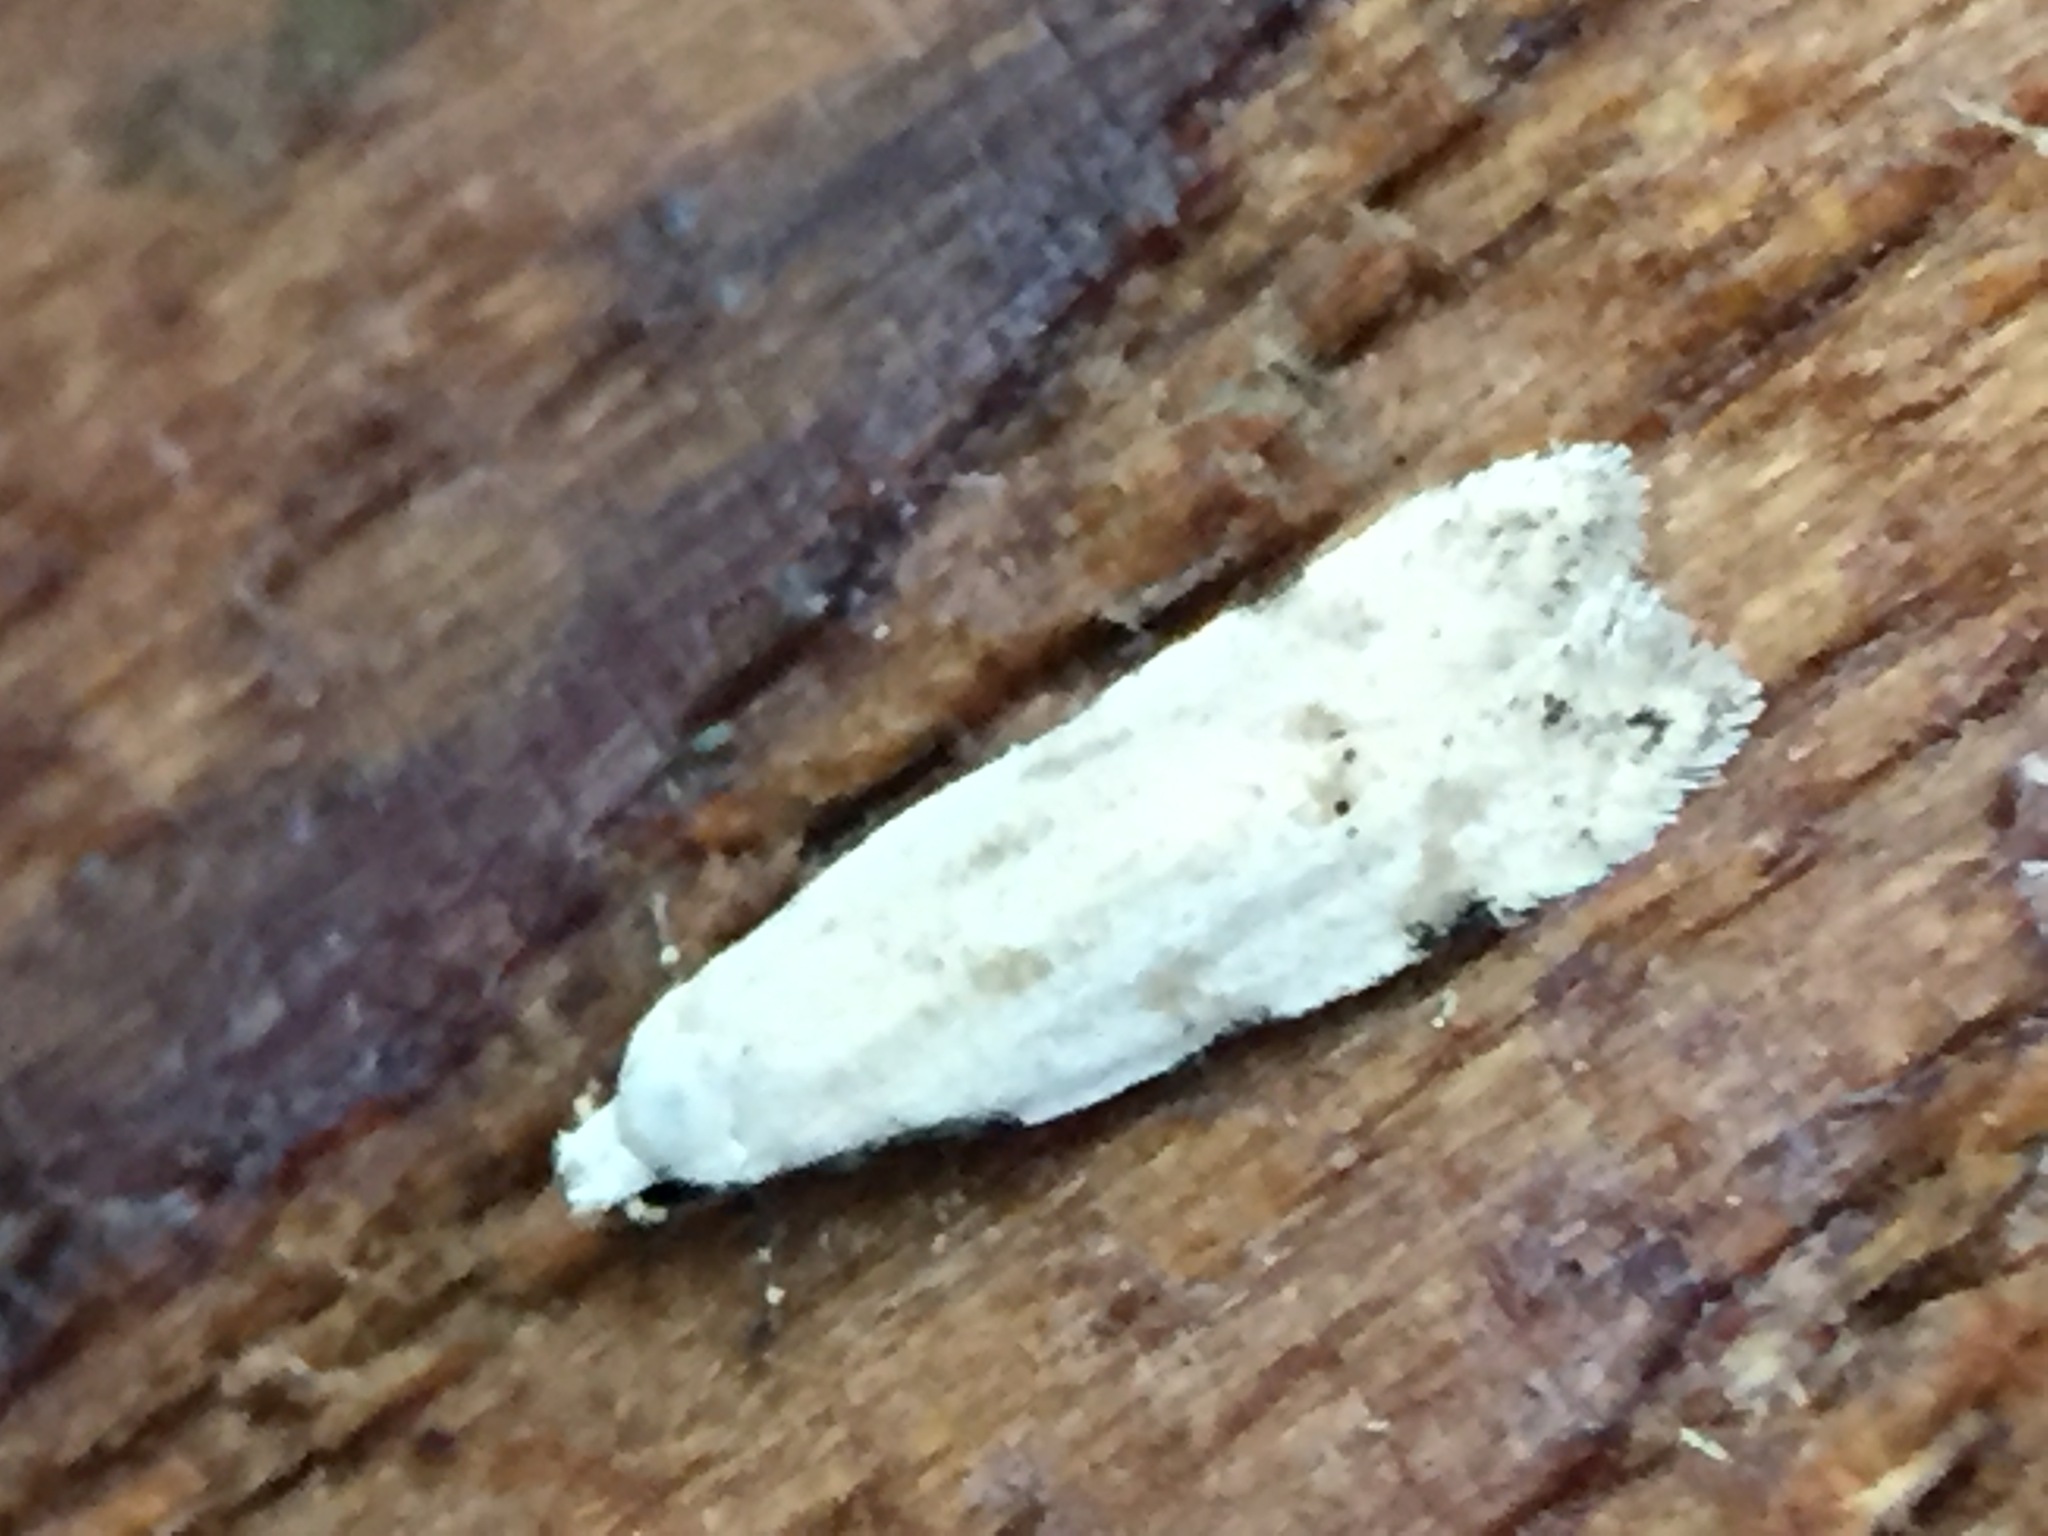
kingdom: Animalia
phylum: Arthropoda
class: Insecta
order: Lepidoptera
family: Tineidae
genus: Endophthora
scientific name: Endophthora omogramma
